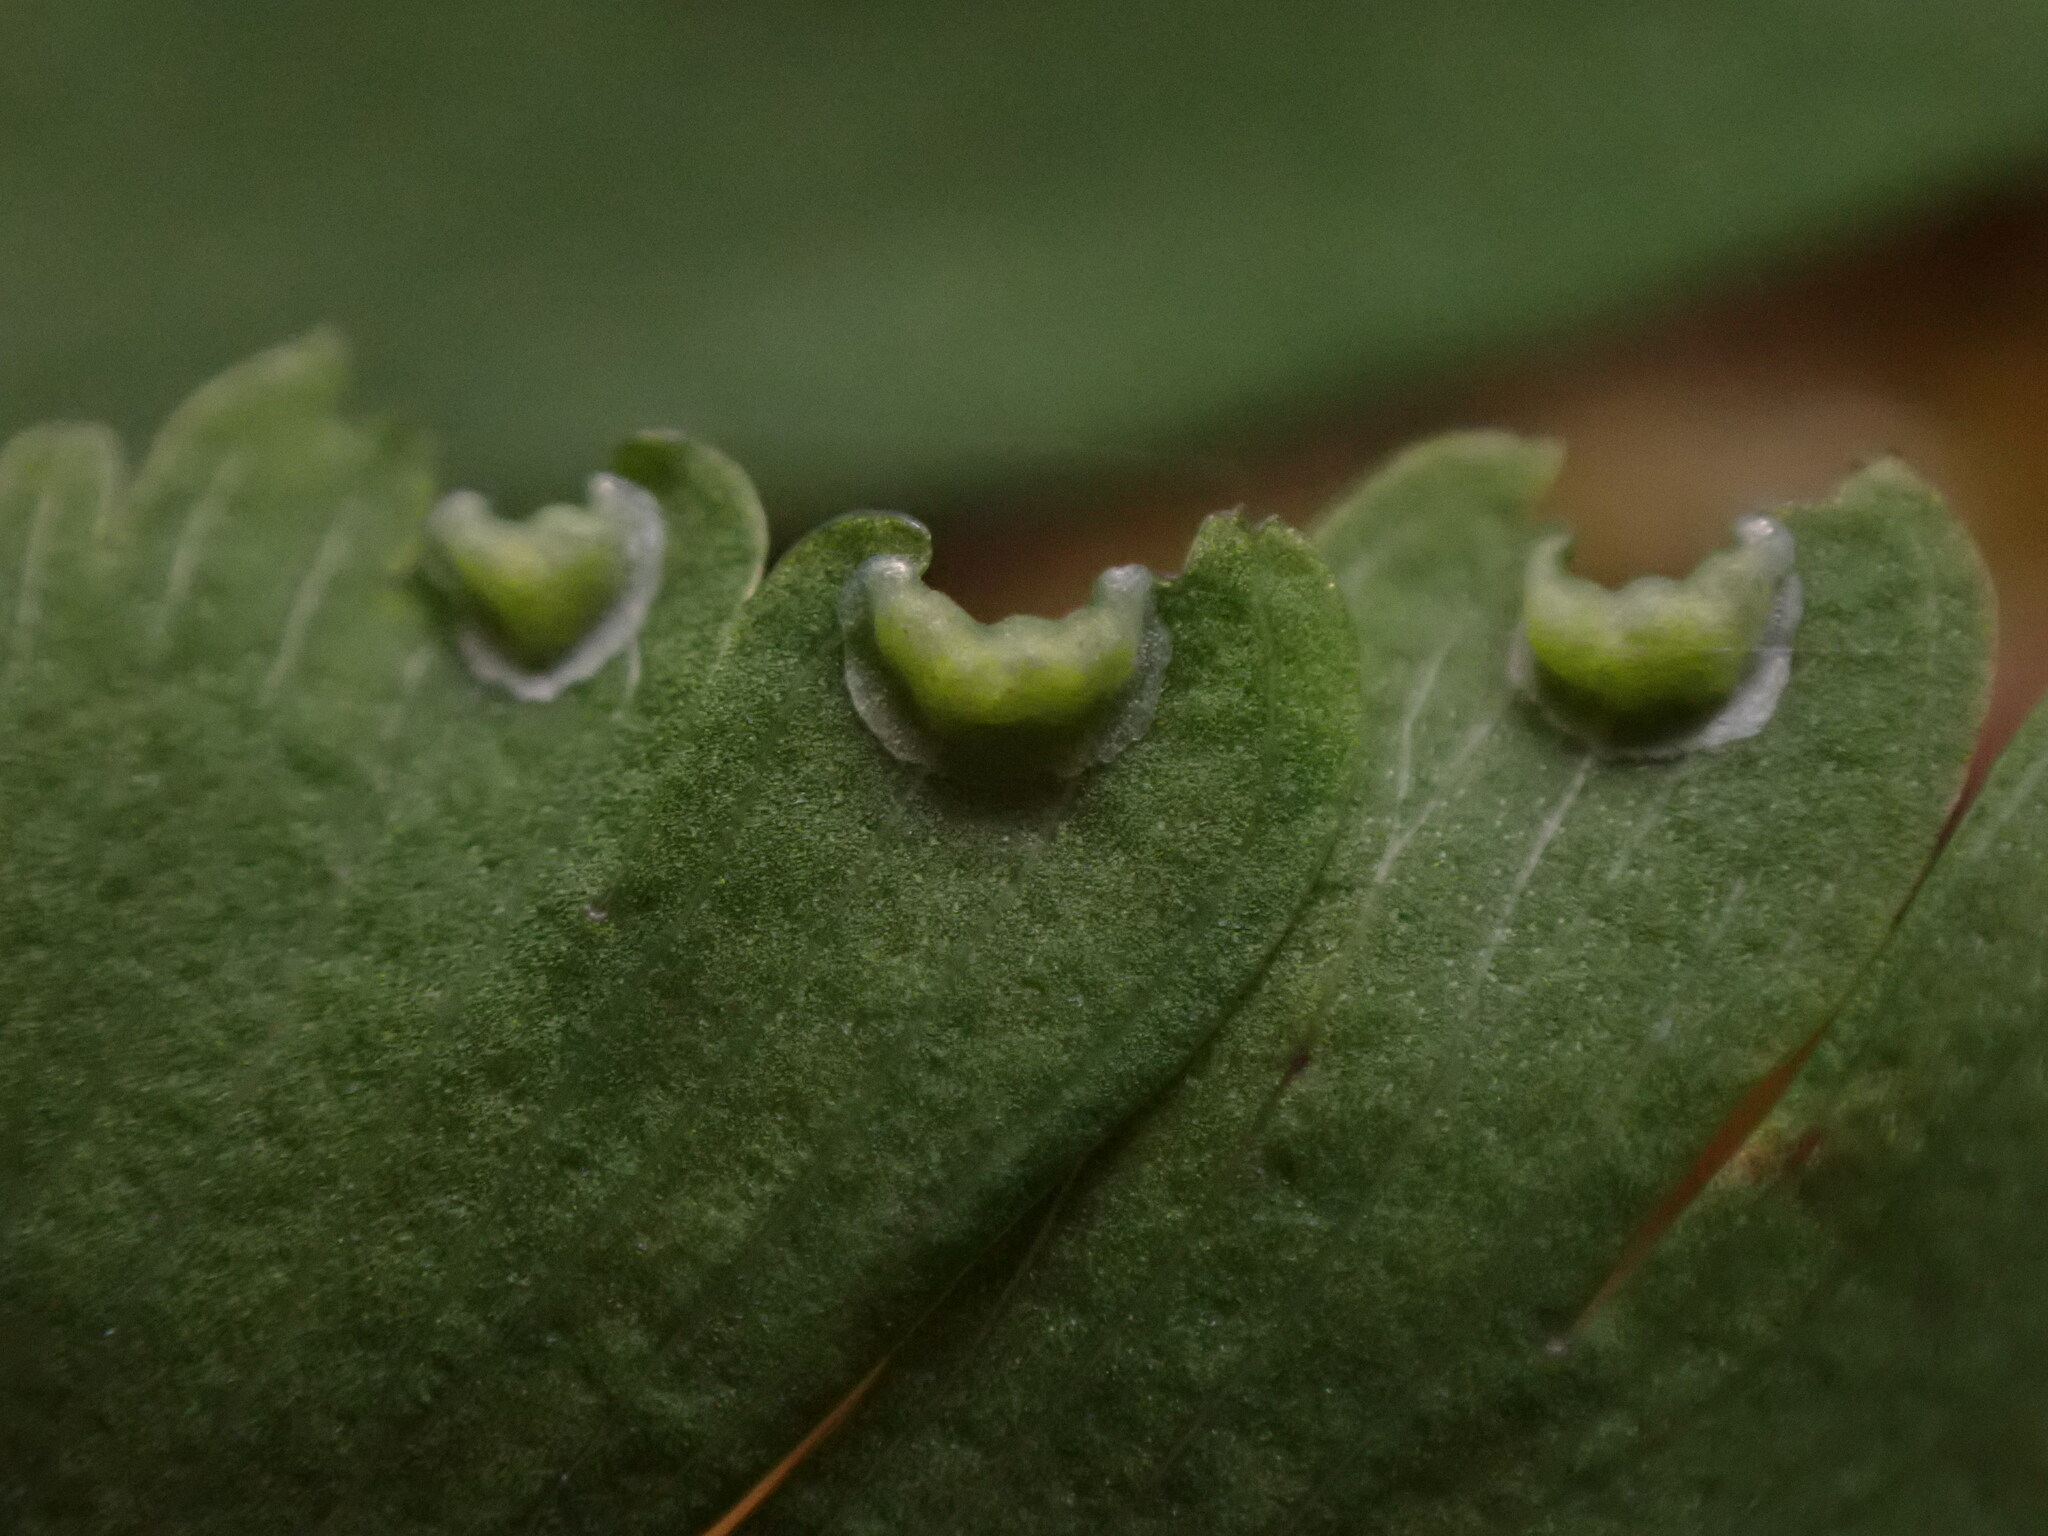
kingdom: Plantae
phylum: Tracheophyta
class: Polypodiopsida
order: Polypodiales
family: Pteridaceae
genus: Adiantum
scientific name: Adiantum aleuticum
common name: Aleutian maidenhair fern
